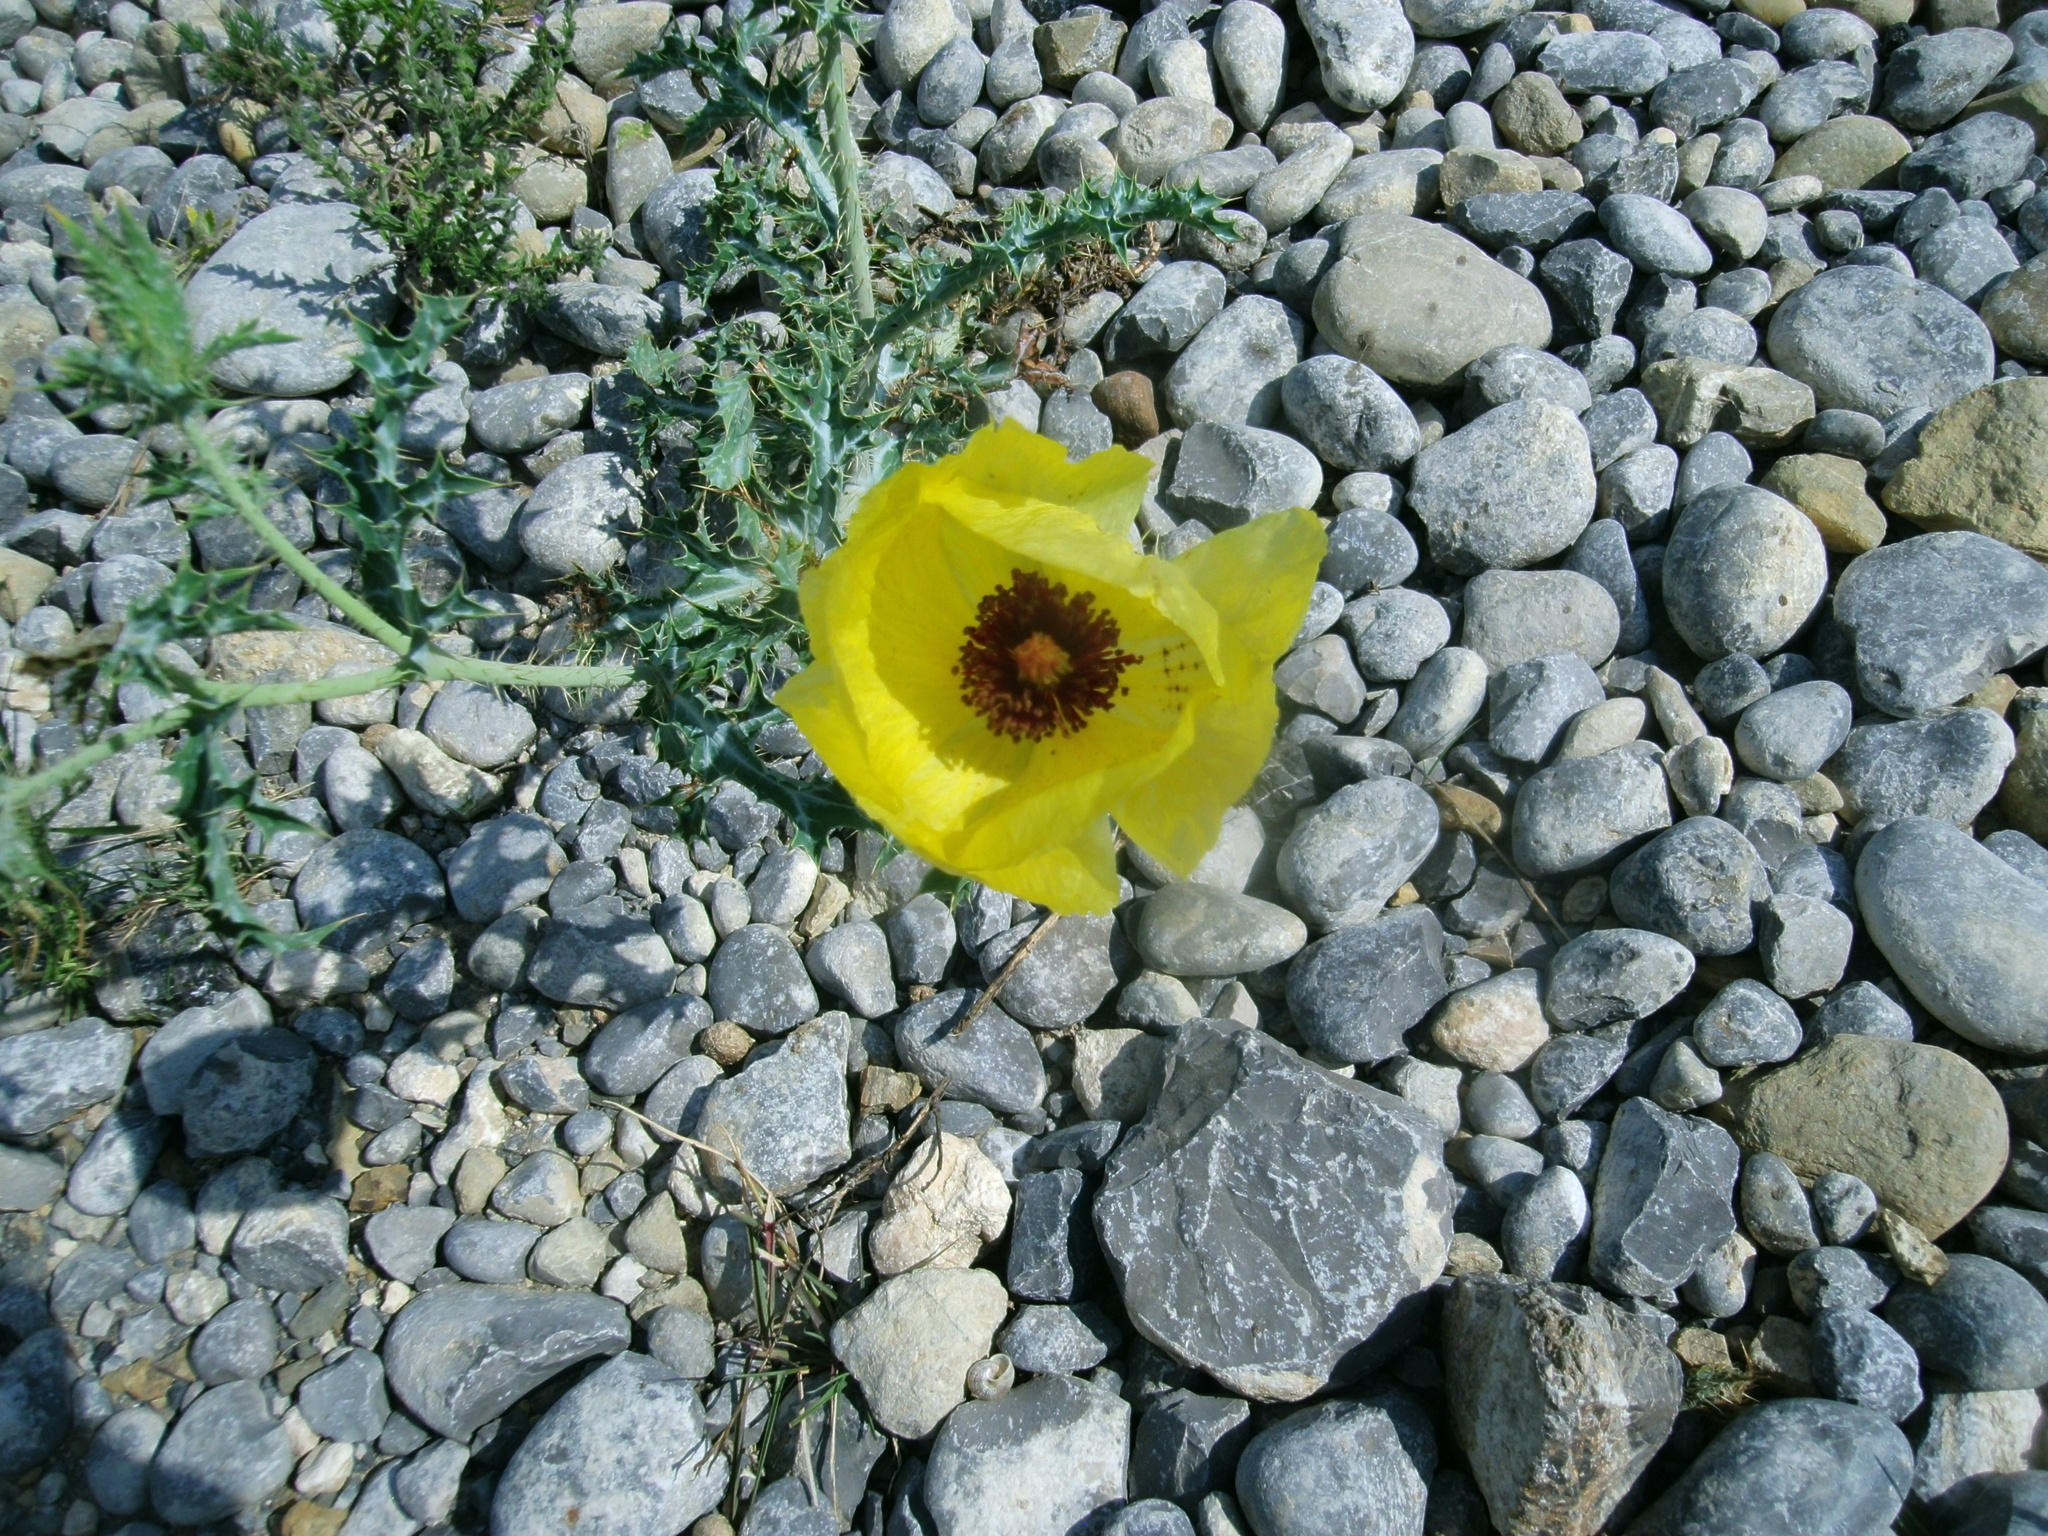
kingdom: Plantae
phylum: Tracheophyta
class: Magnoliopsida
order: Ranunculales
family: Papaveraceae
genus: Argemone
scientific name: Argemone aenea
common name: Golden prickly-poppy
